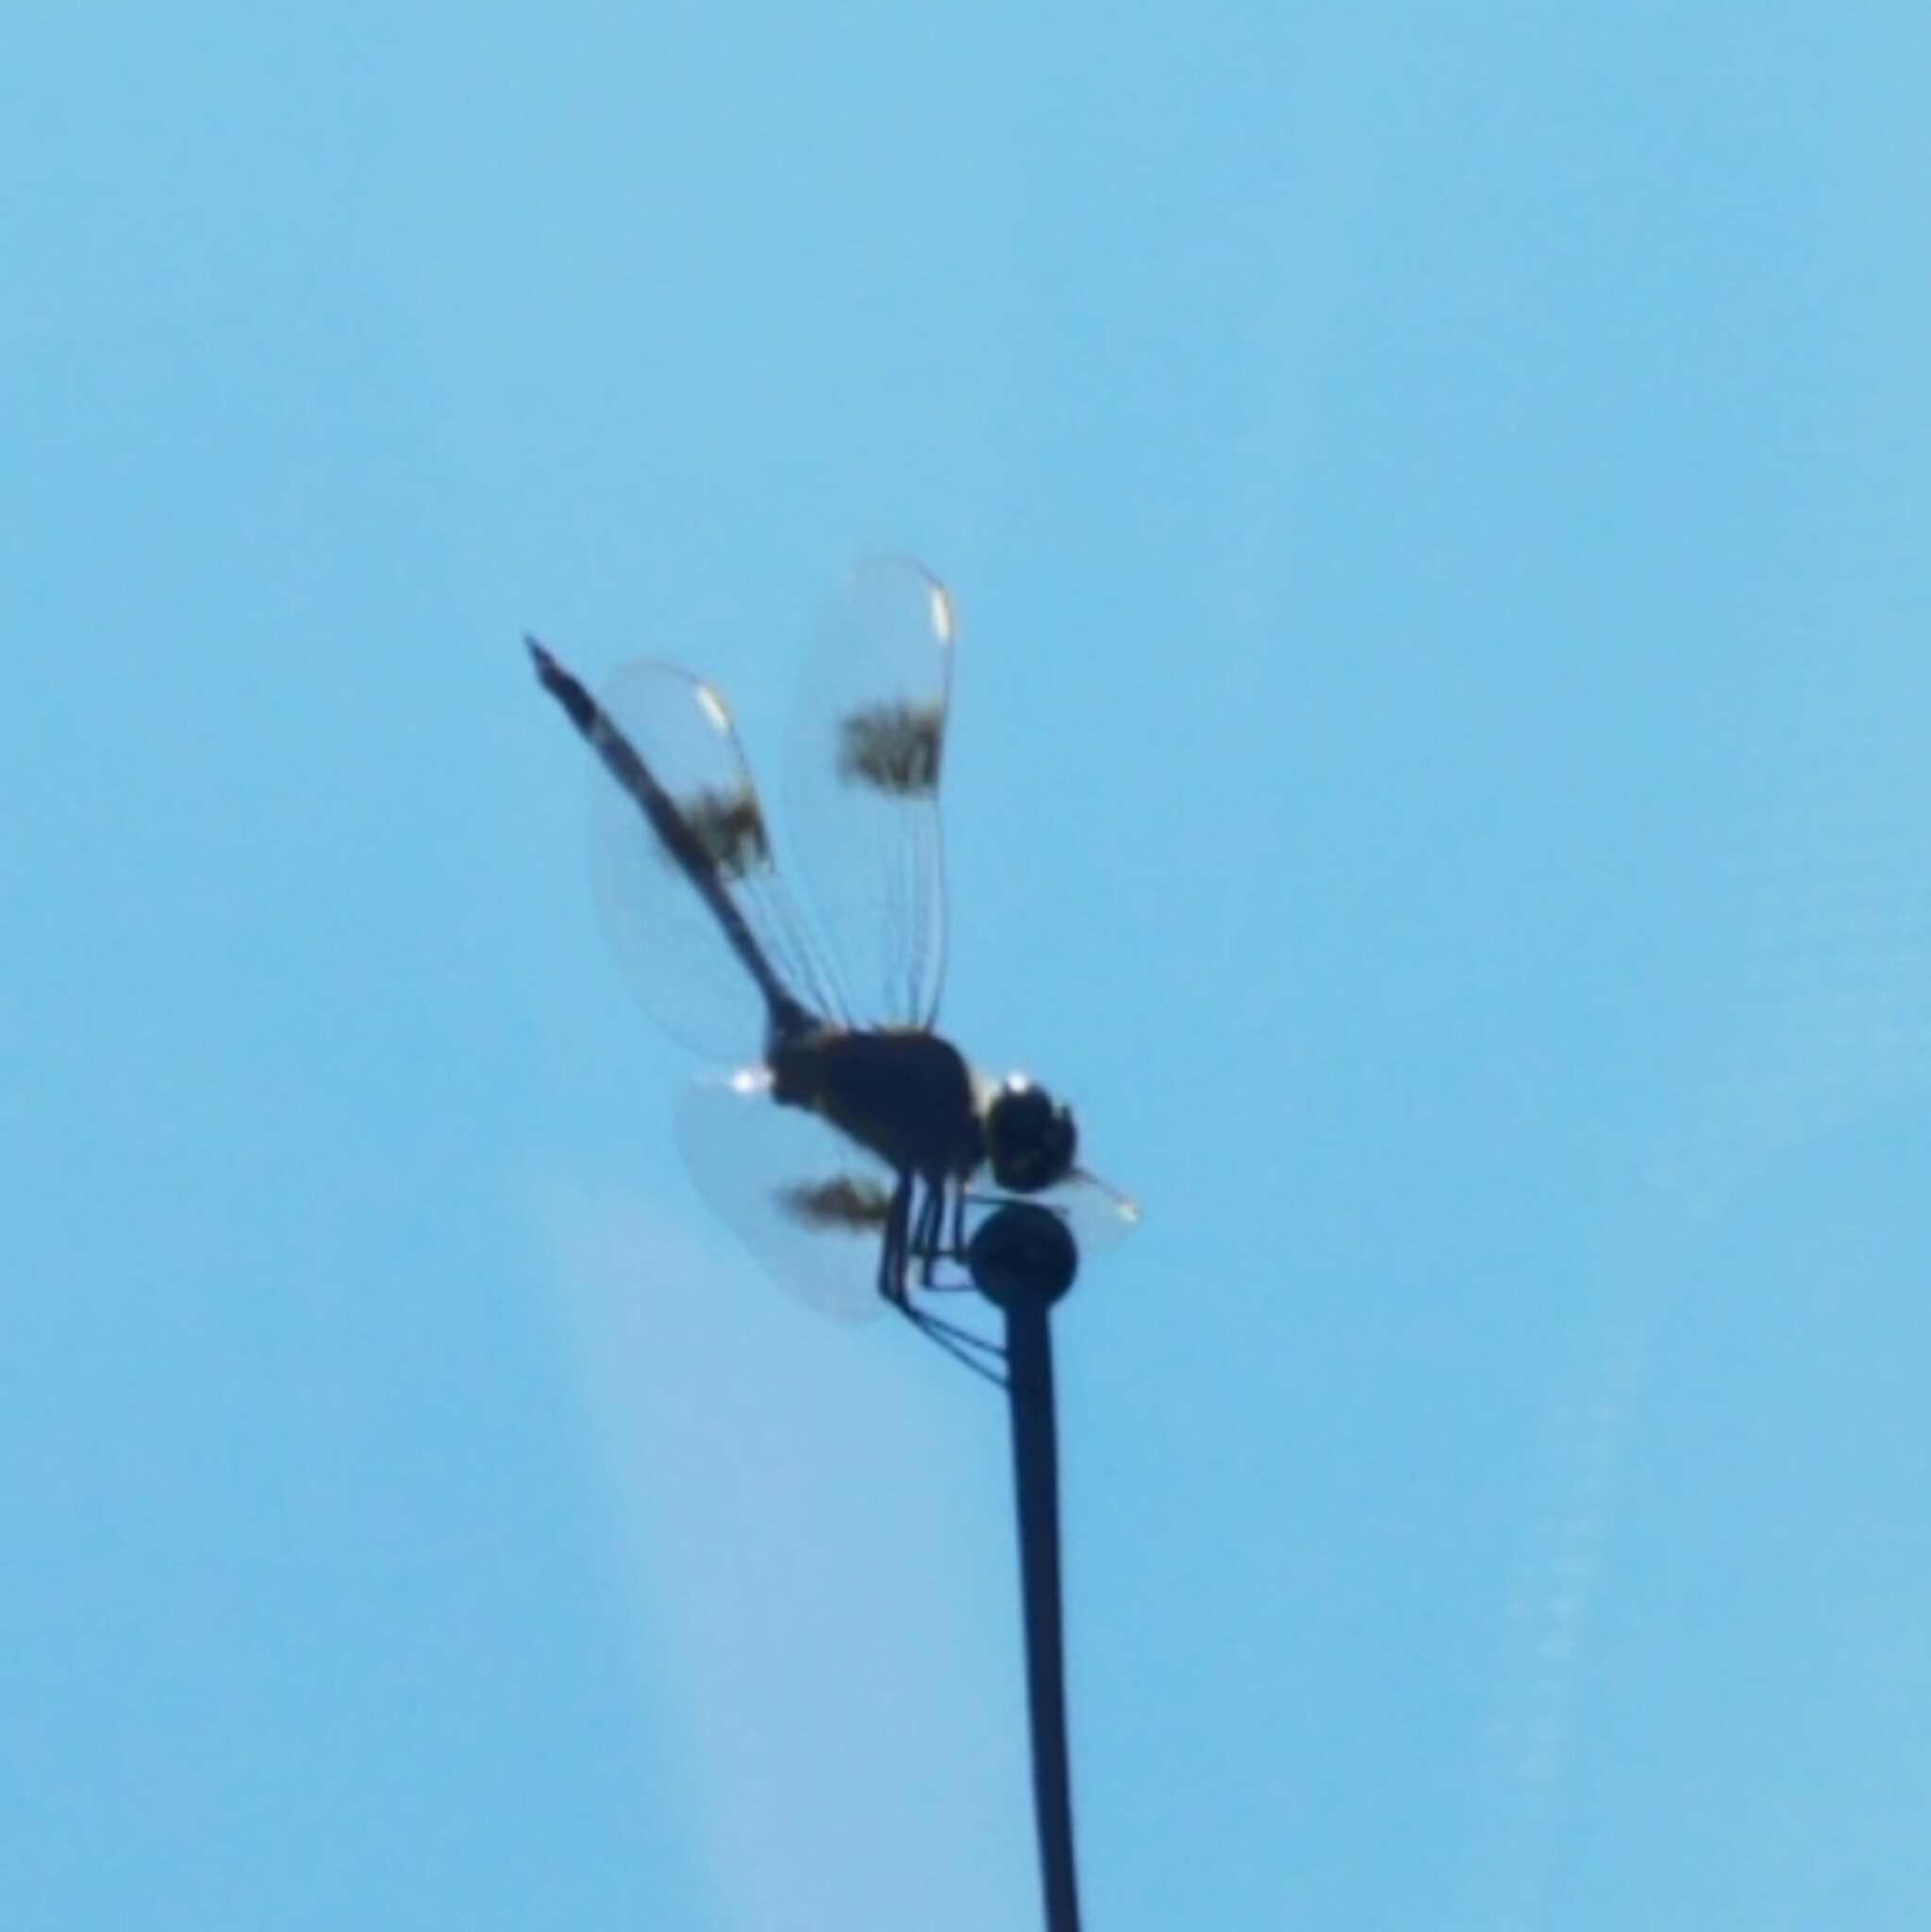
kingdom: Animalia
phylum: Arthropoda
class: Insecta
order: Odonata
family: Libellulidae
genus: Brachymesia
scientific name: Brachymesia gravida
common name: Four-spotted pennant
